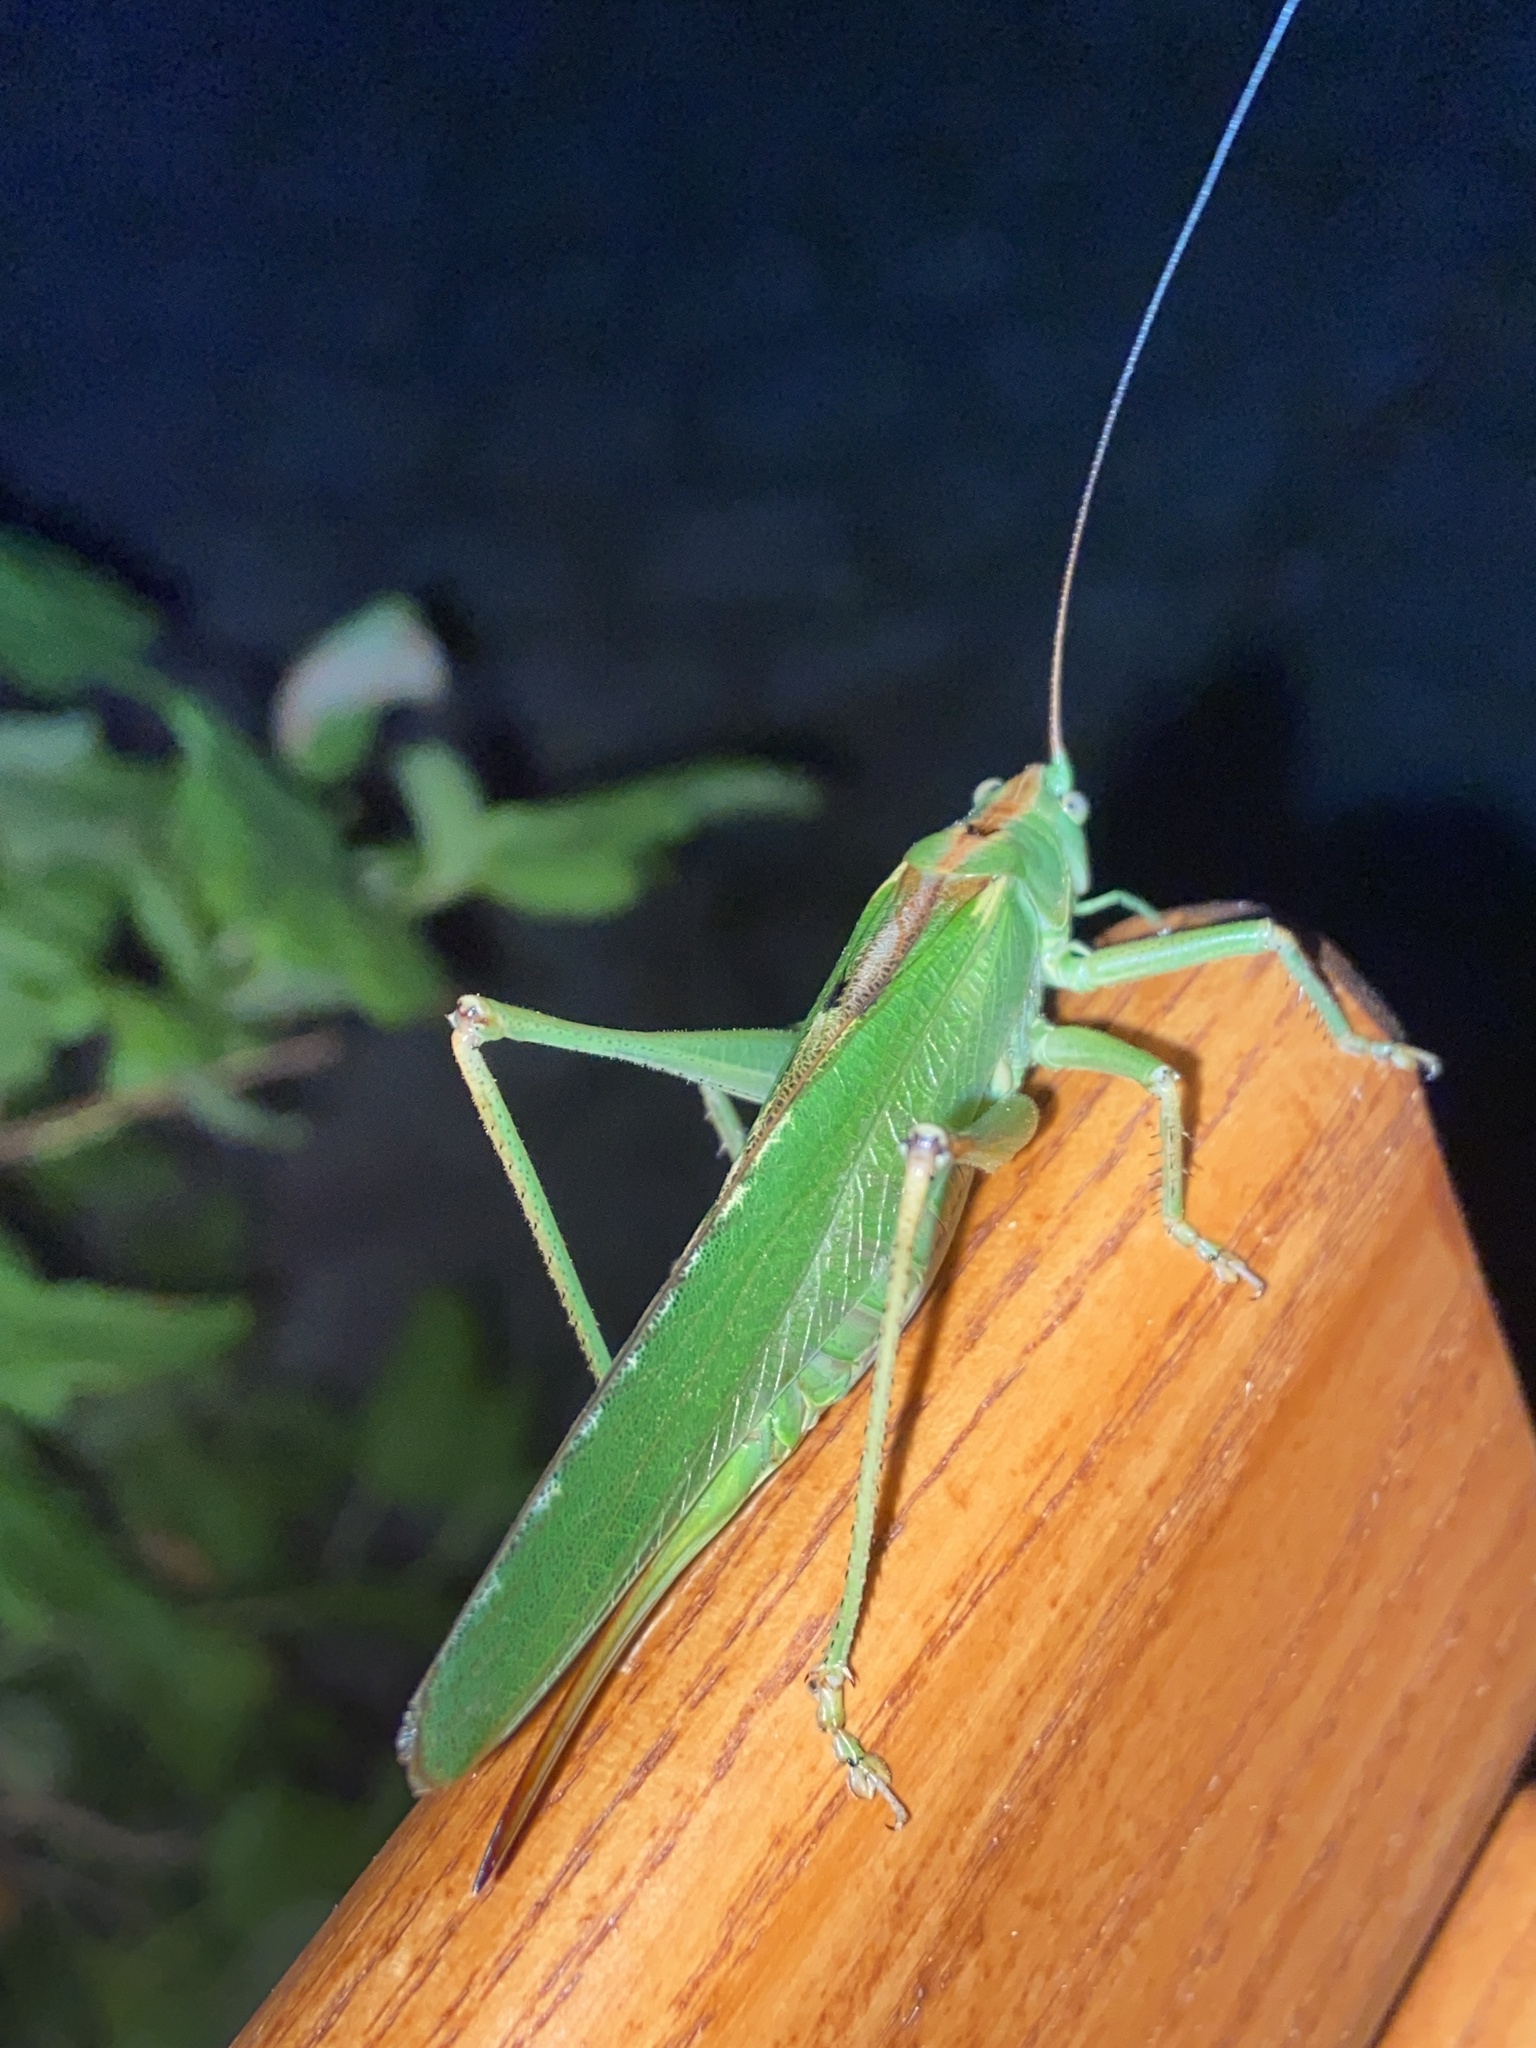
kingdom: Animalia
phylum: Arthropoda
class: Insecta
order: Orthoptera
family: Tettigoniidae
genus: Tettigonia
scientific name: Tettigonia viridissima
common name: Great green bush-cricket
